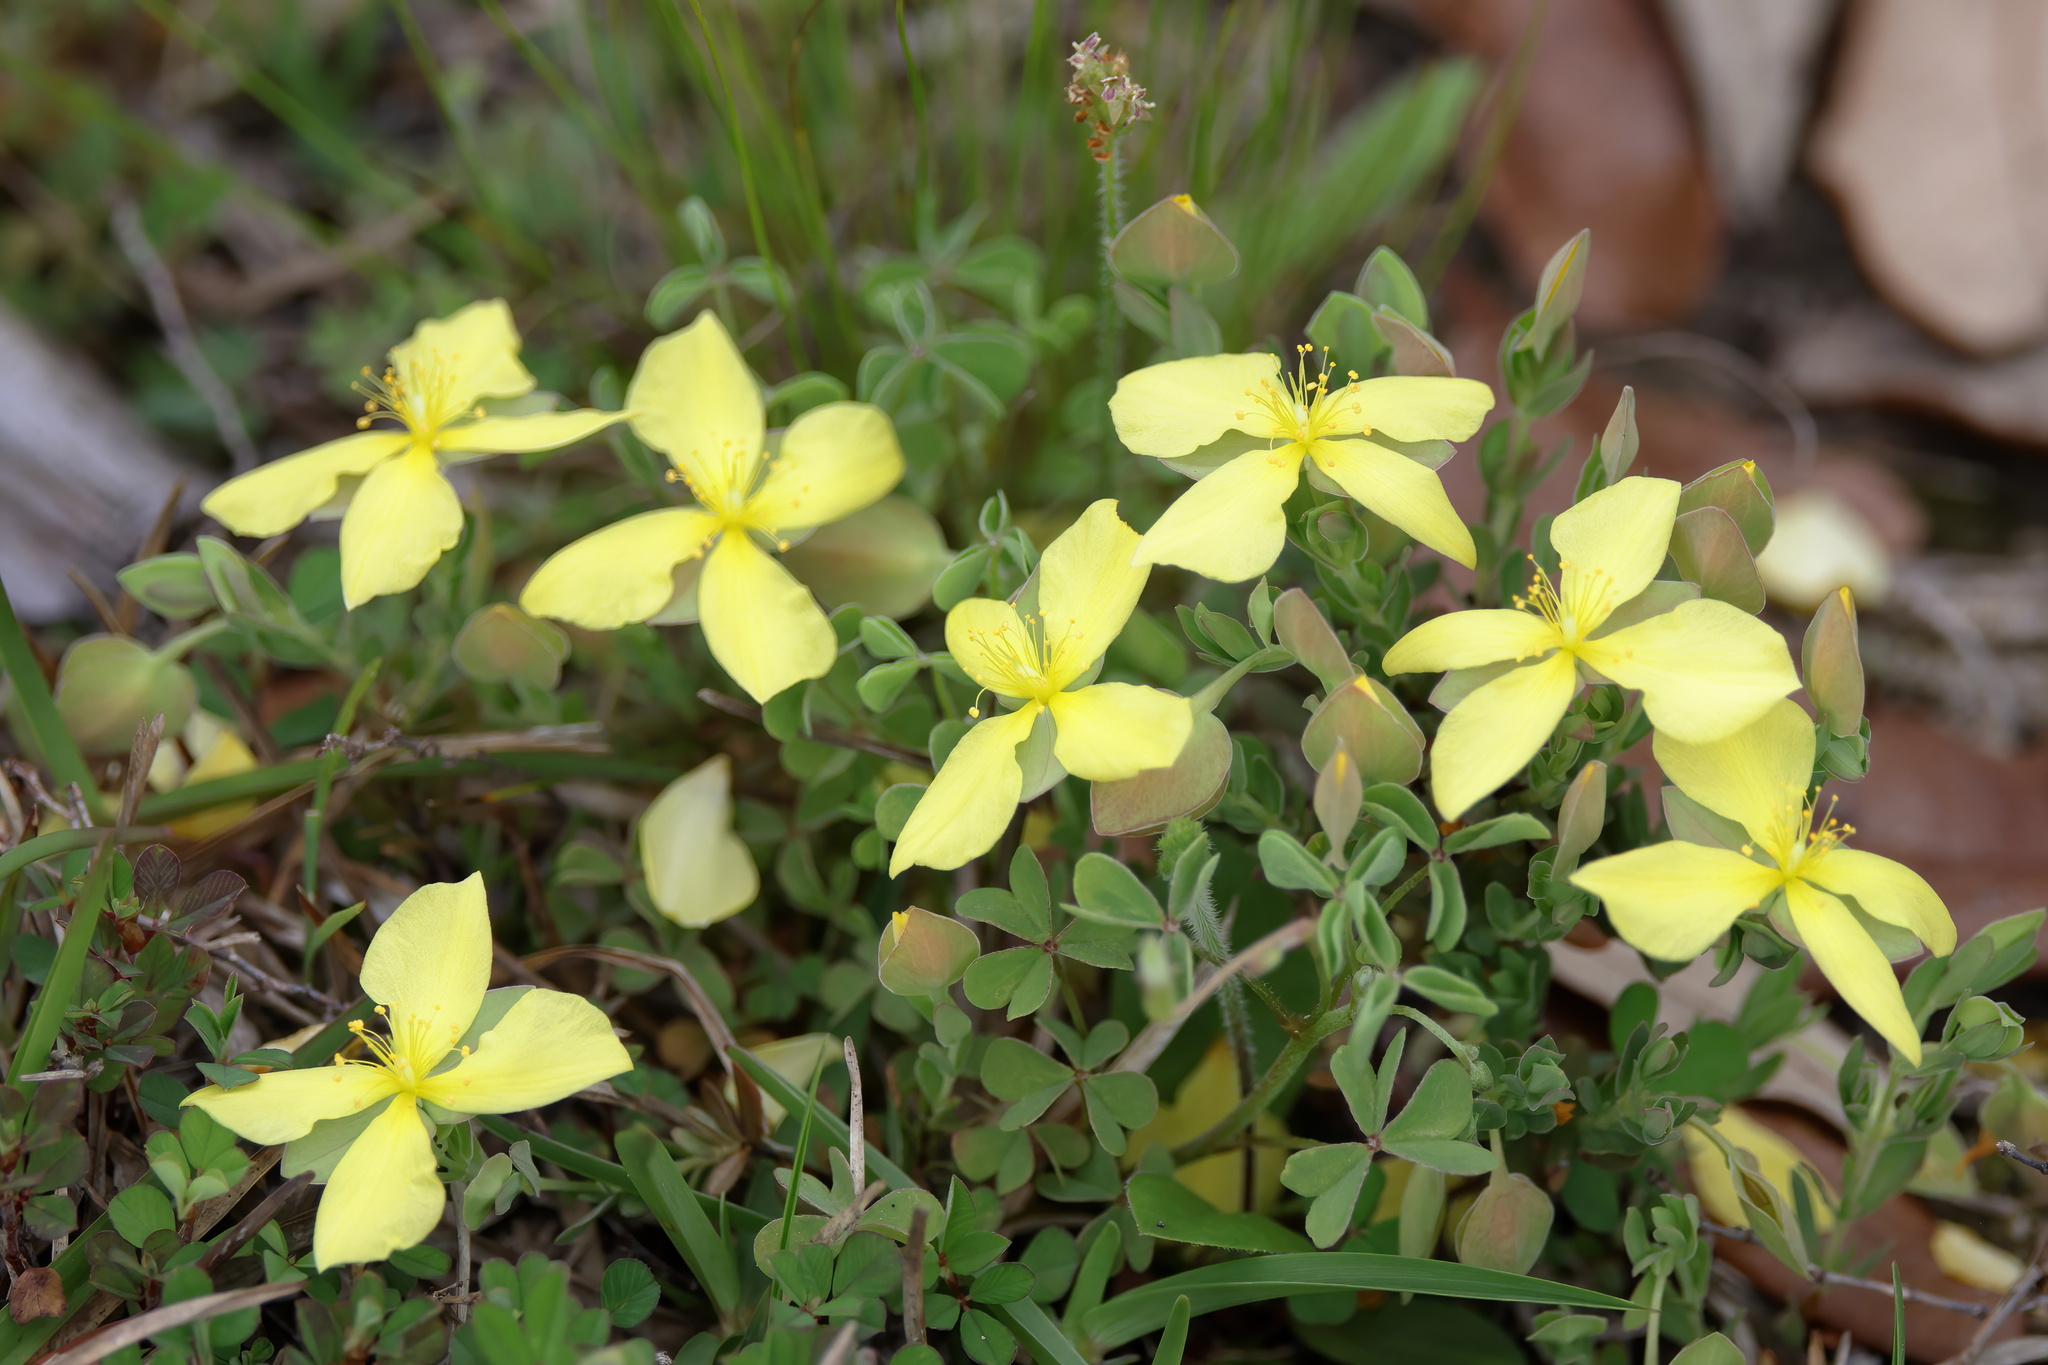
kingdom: Plantae
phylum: Tracheophyta
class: Magnoliopsida
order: Malpighiales
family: Hypericaceae
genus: Hypericum
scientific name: Hypericum suffruticosum
